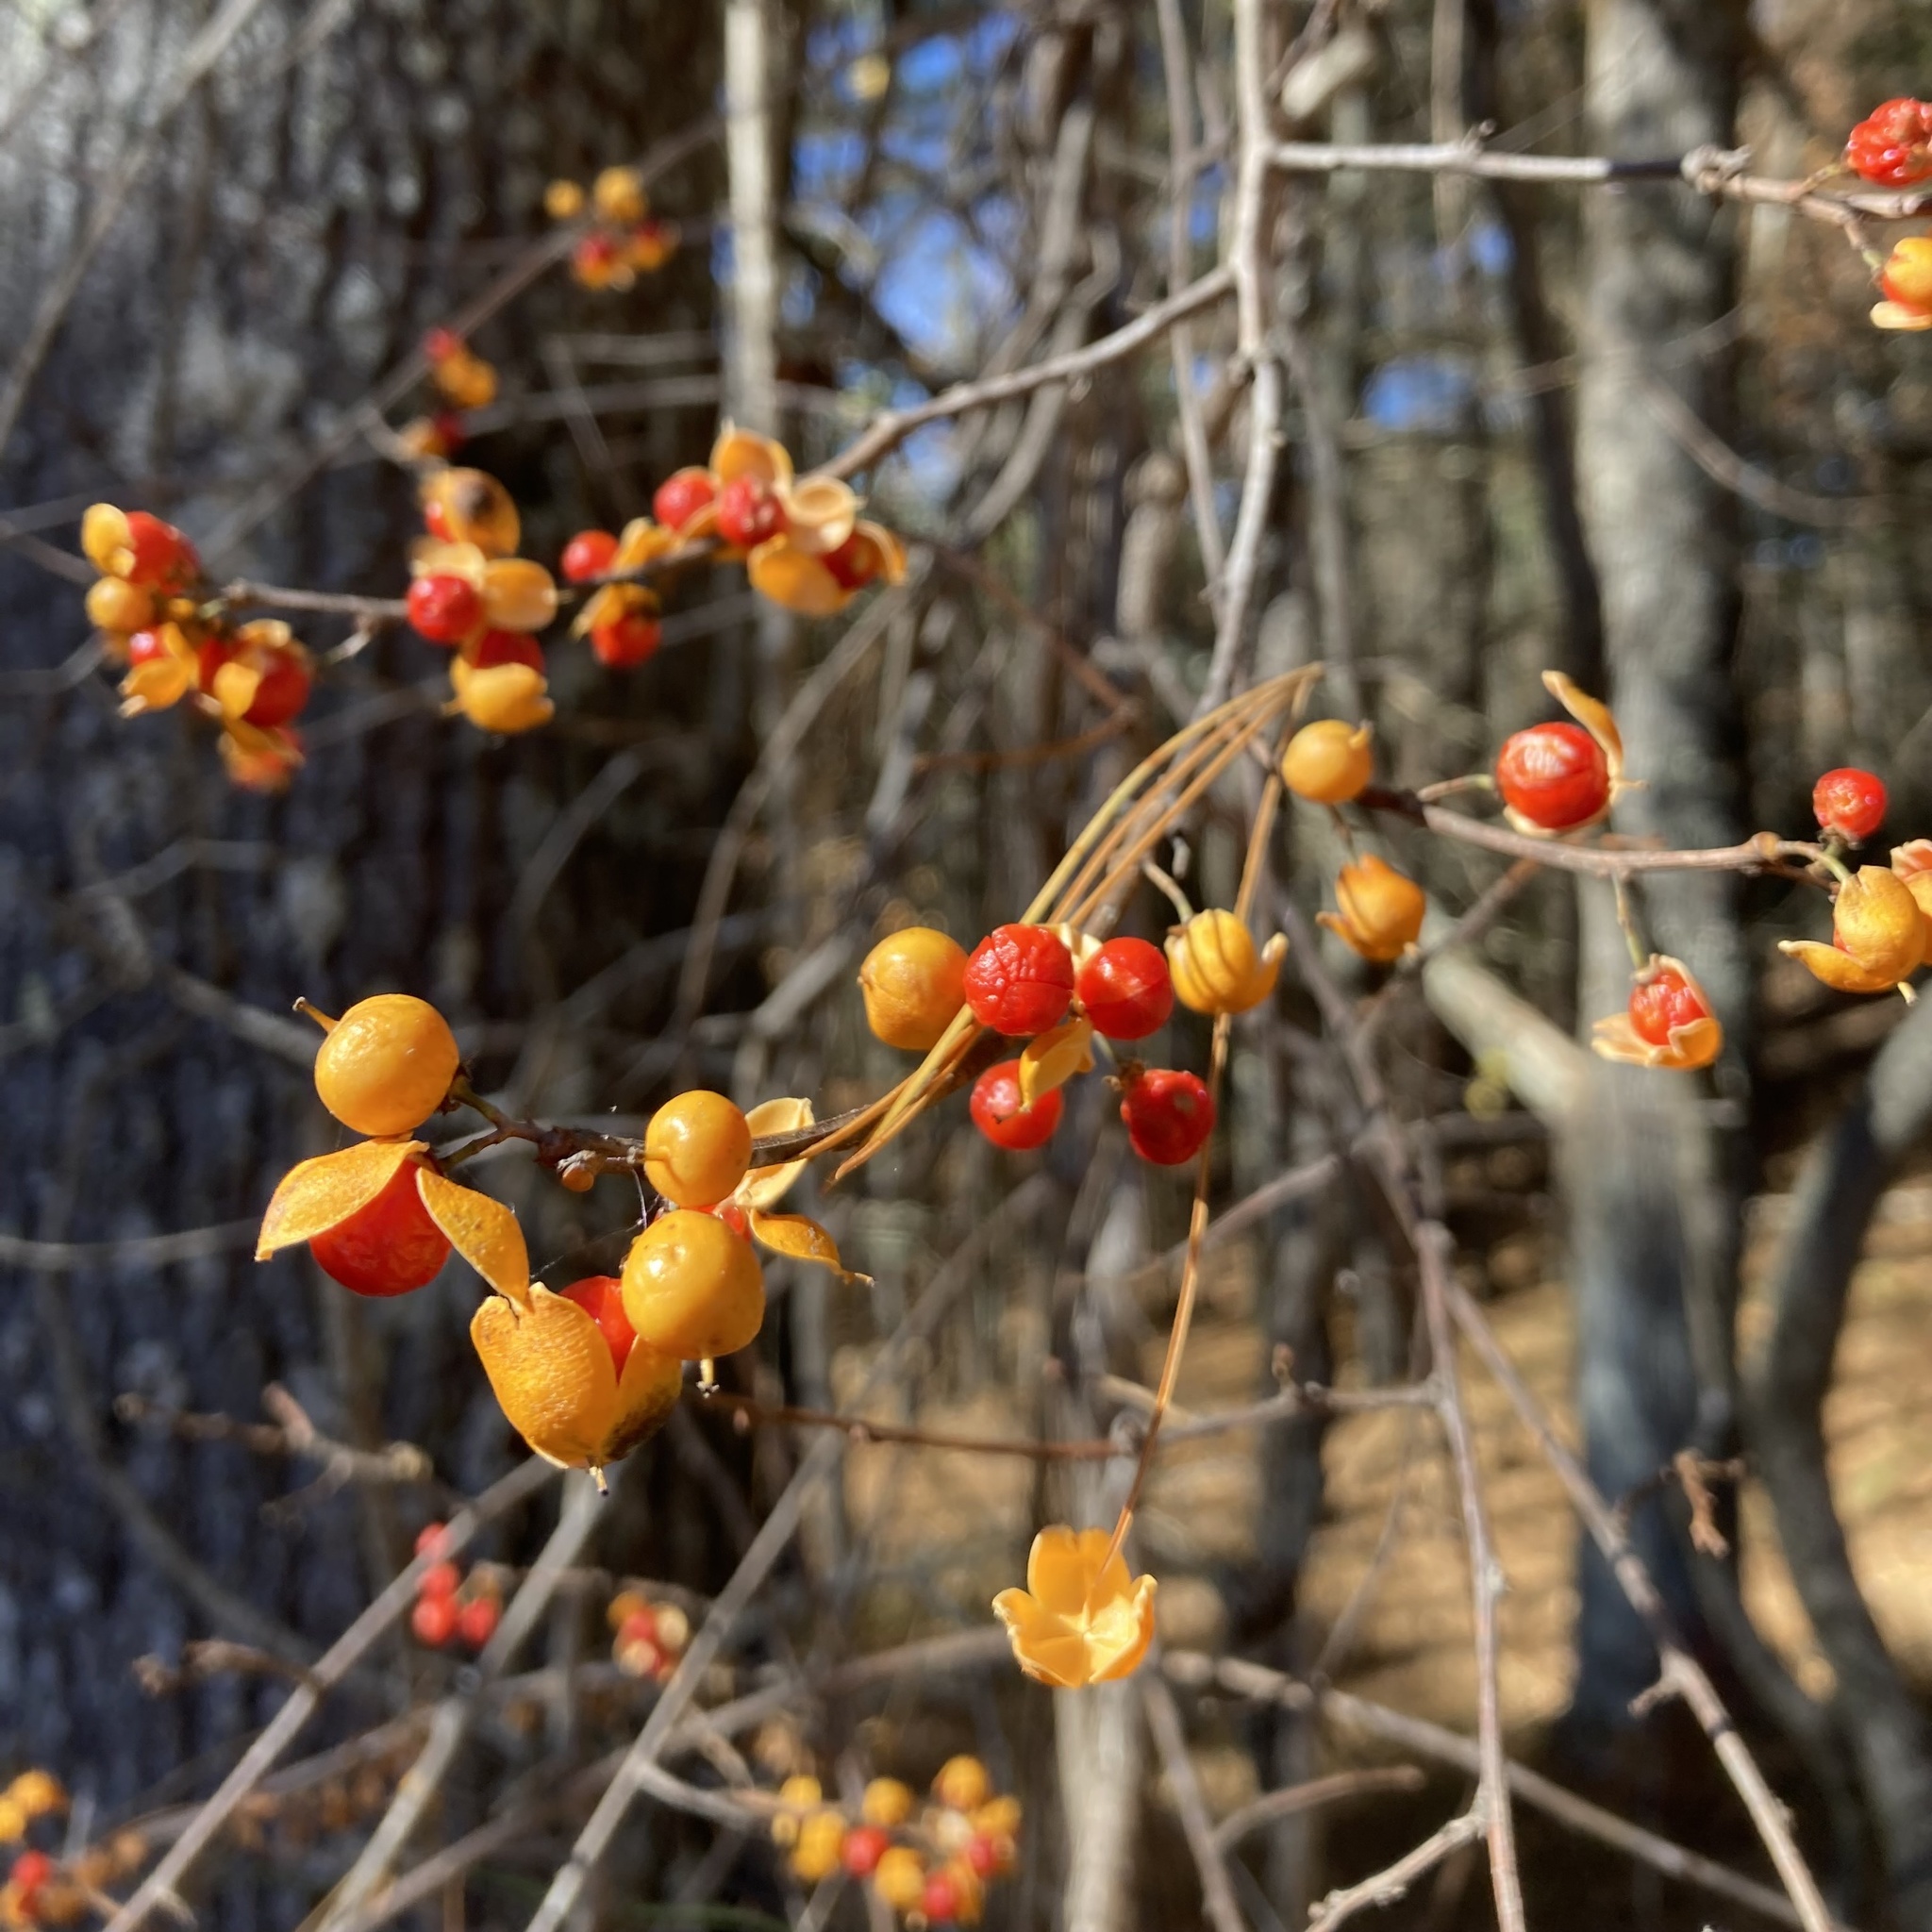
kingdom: Plantae
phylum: Tracheophyta
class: Magnoliopsida
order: Celastrales
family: Celastraceae
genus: Celastrus
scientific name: Celastrus orbiculatus
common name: Oriental bittersweet
